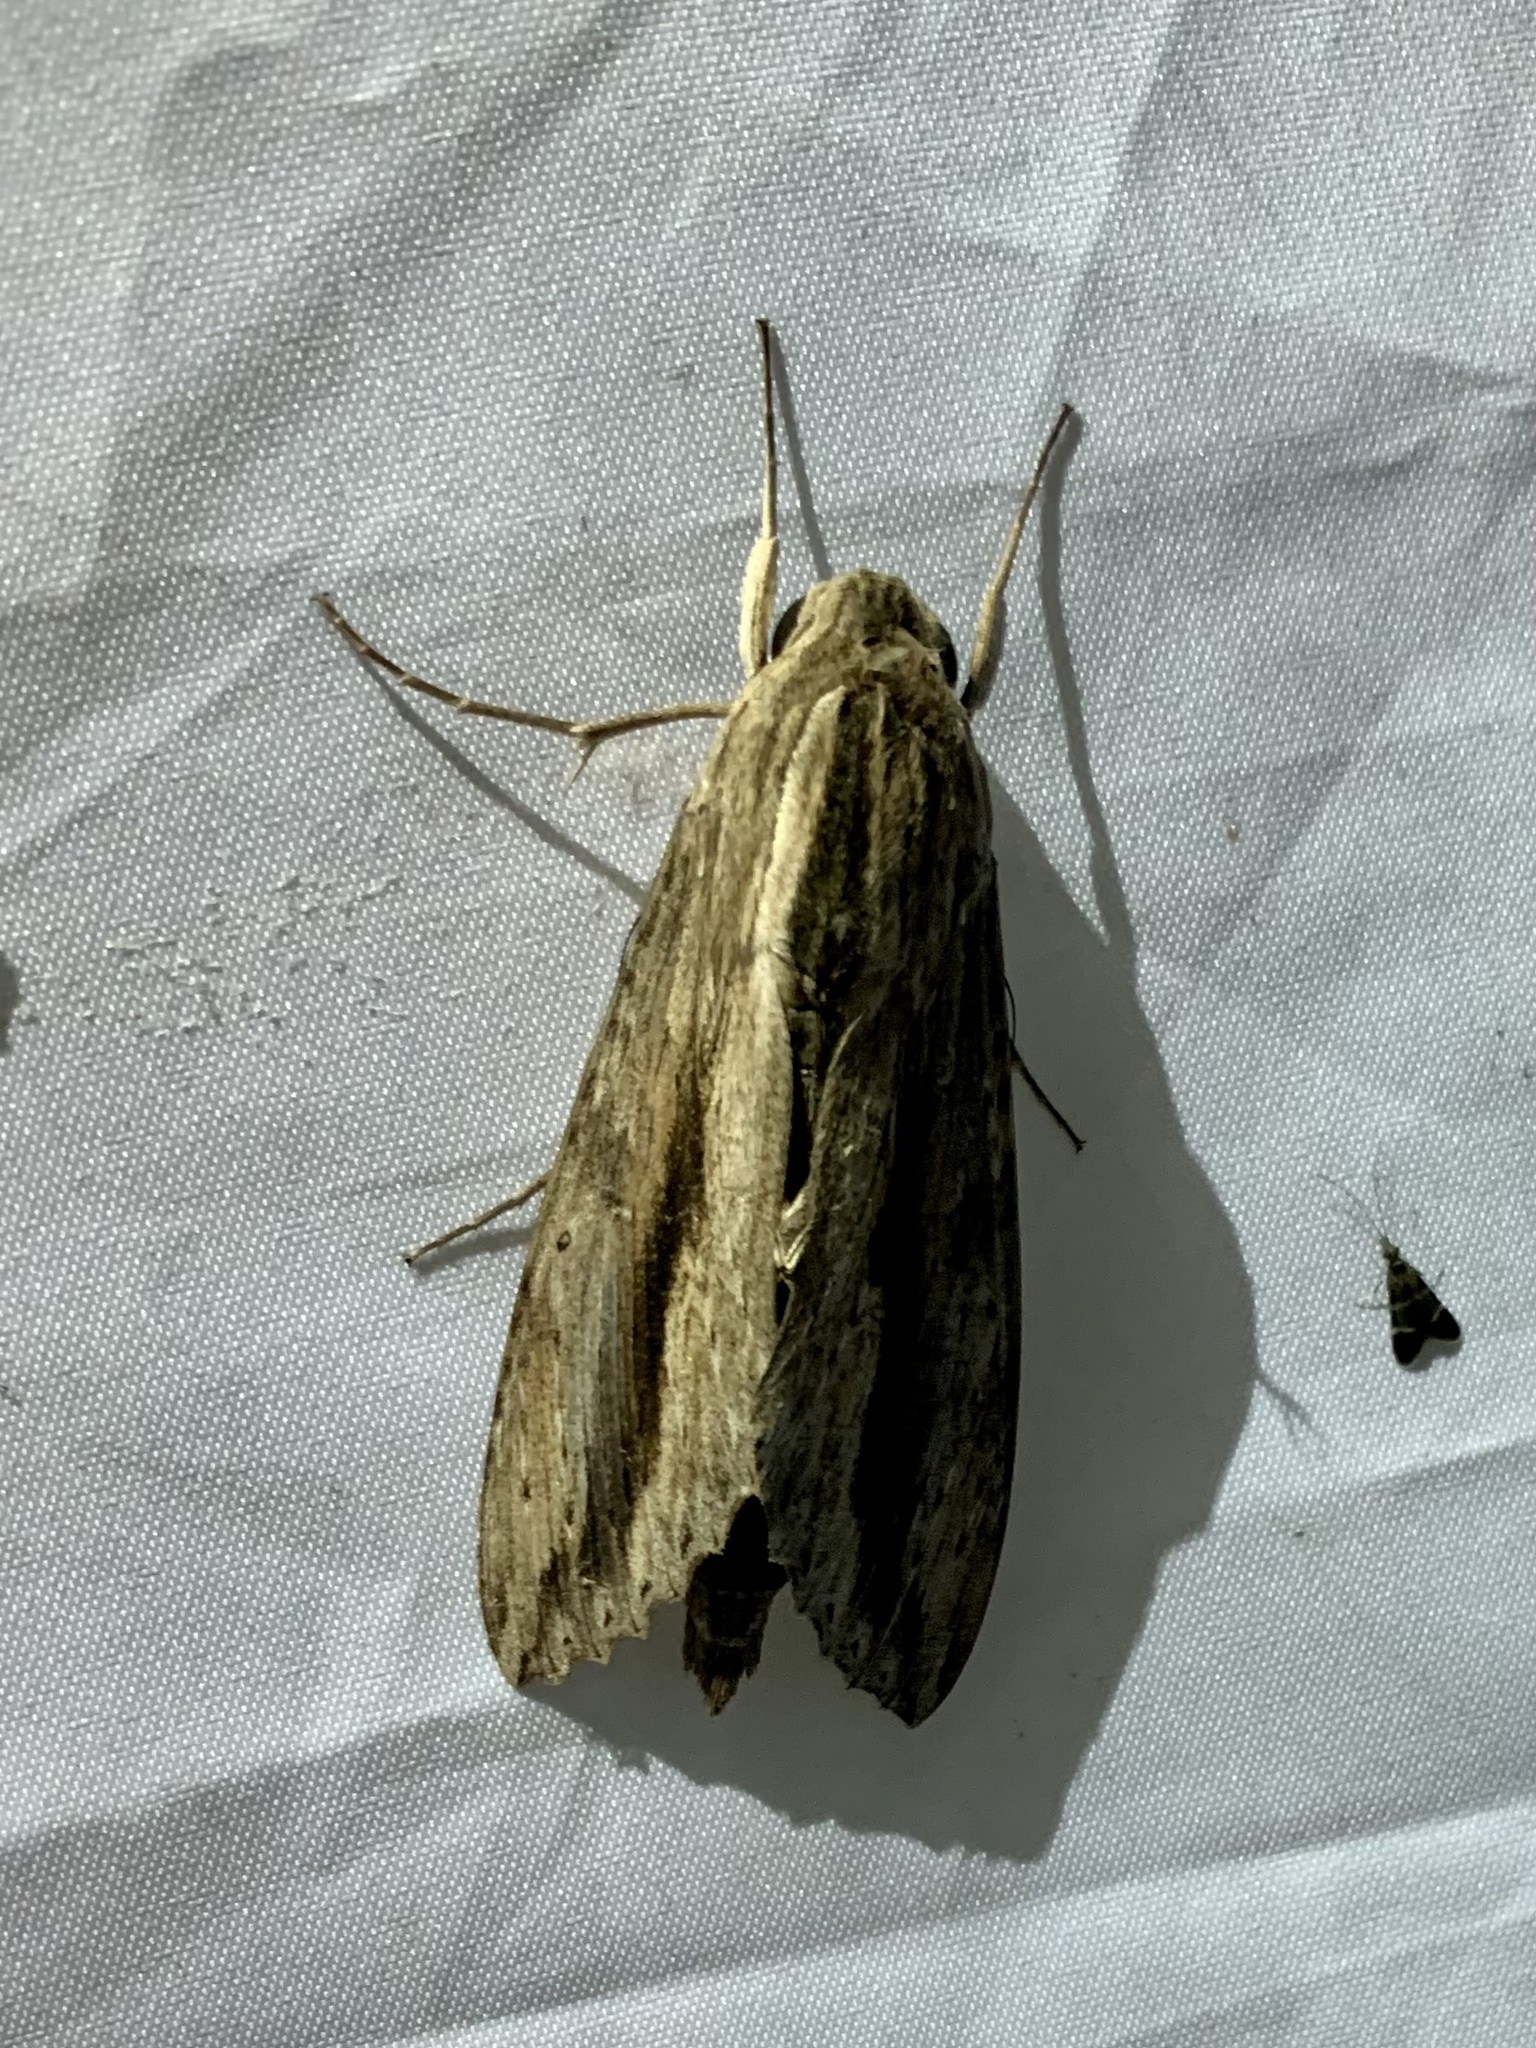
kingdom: Animalia
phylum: Arthropoda
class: Insecta
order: Lepidoptera
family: Sphingidae
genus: Erinnyis
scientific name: Erinnyis ello
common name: Ello sphinx
